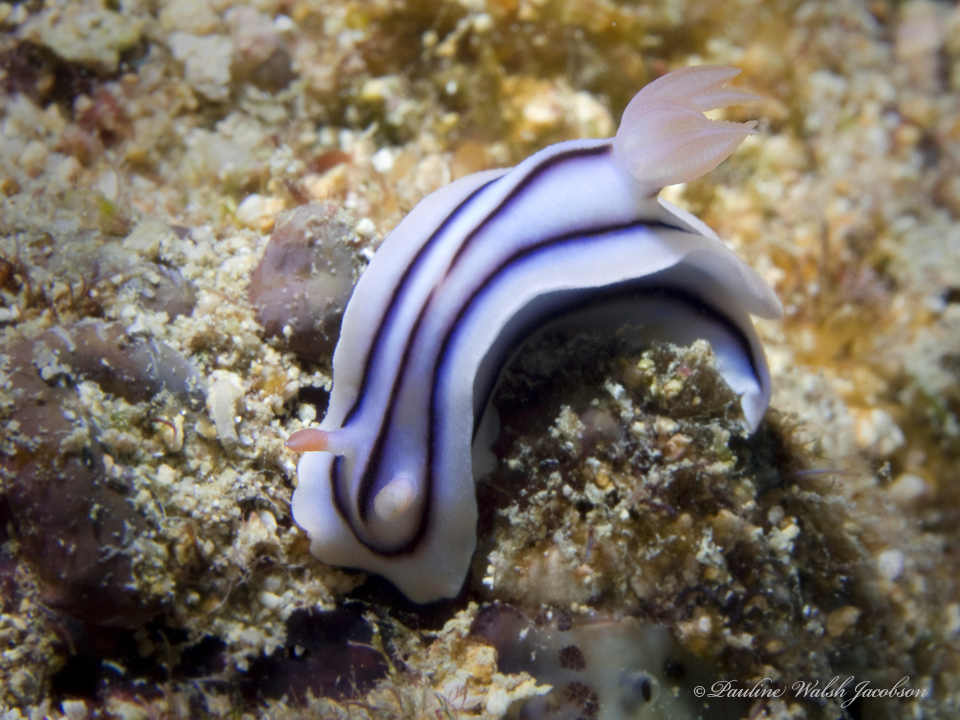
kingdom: Animalia
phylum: Mollusca
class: Gastropoda
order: Nudibranchia
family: Chromodorididae
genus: Chromodoris
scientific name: Chromodoris lochi
